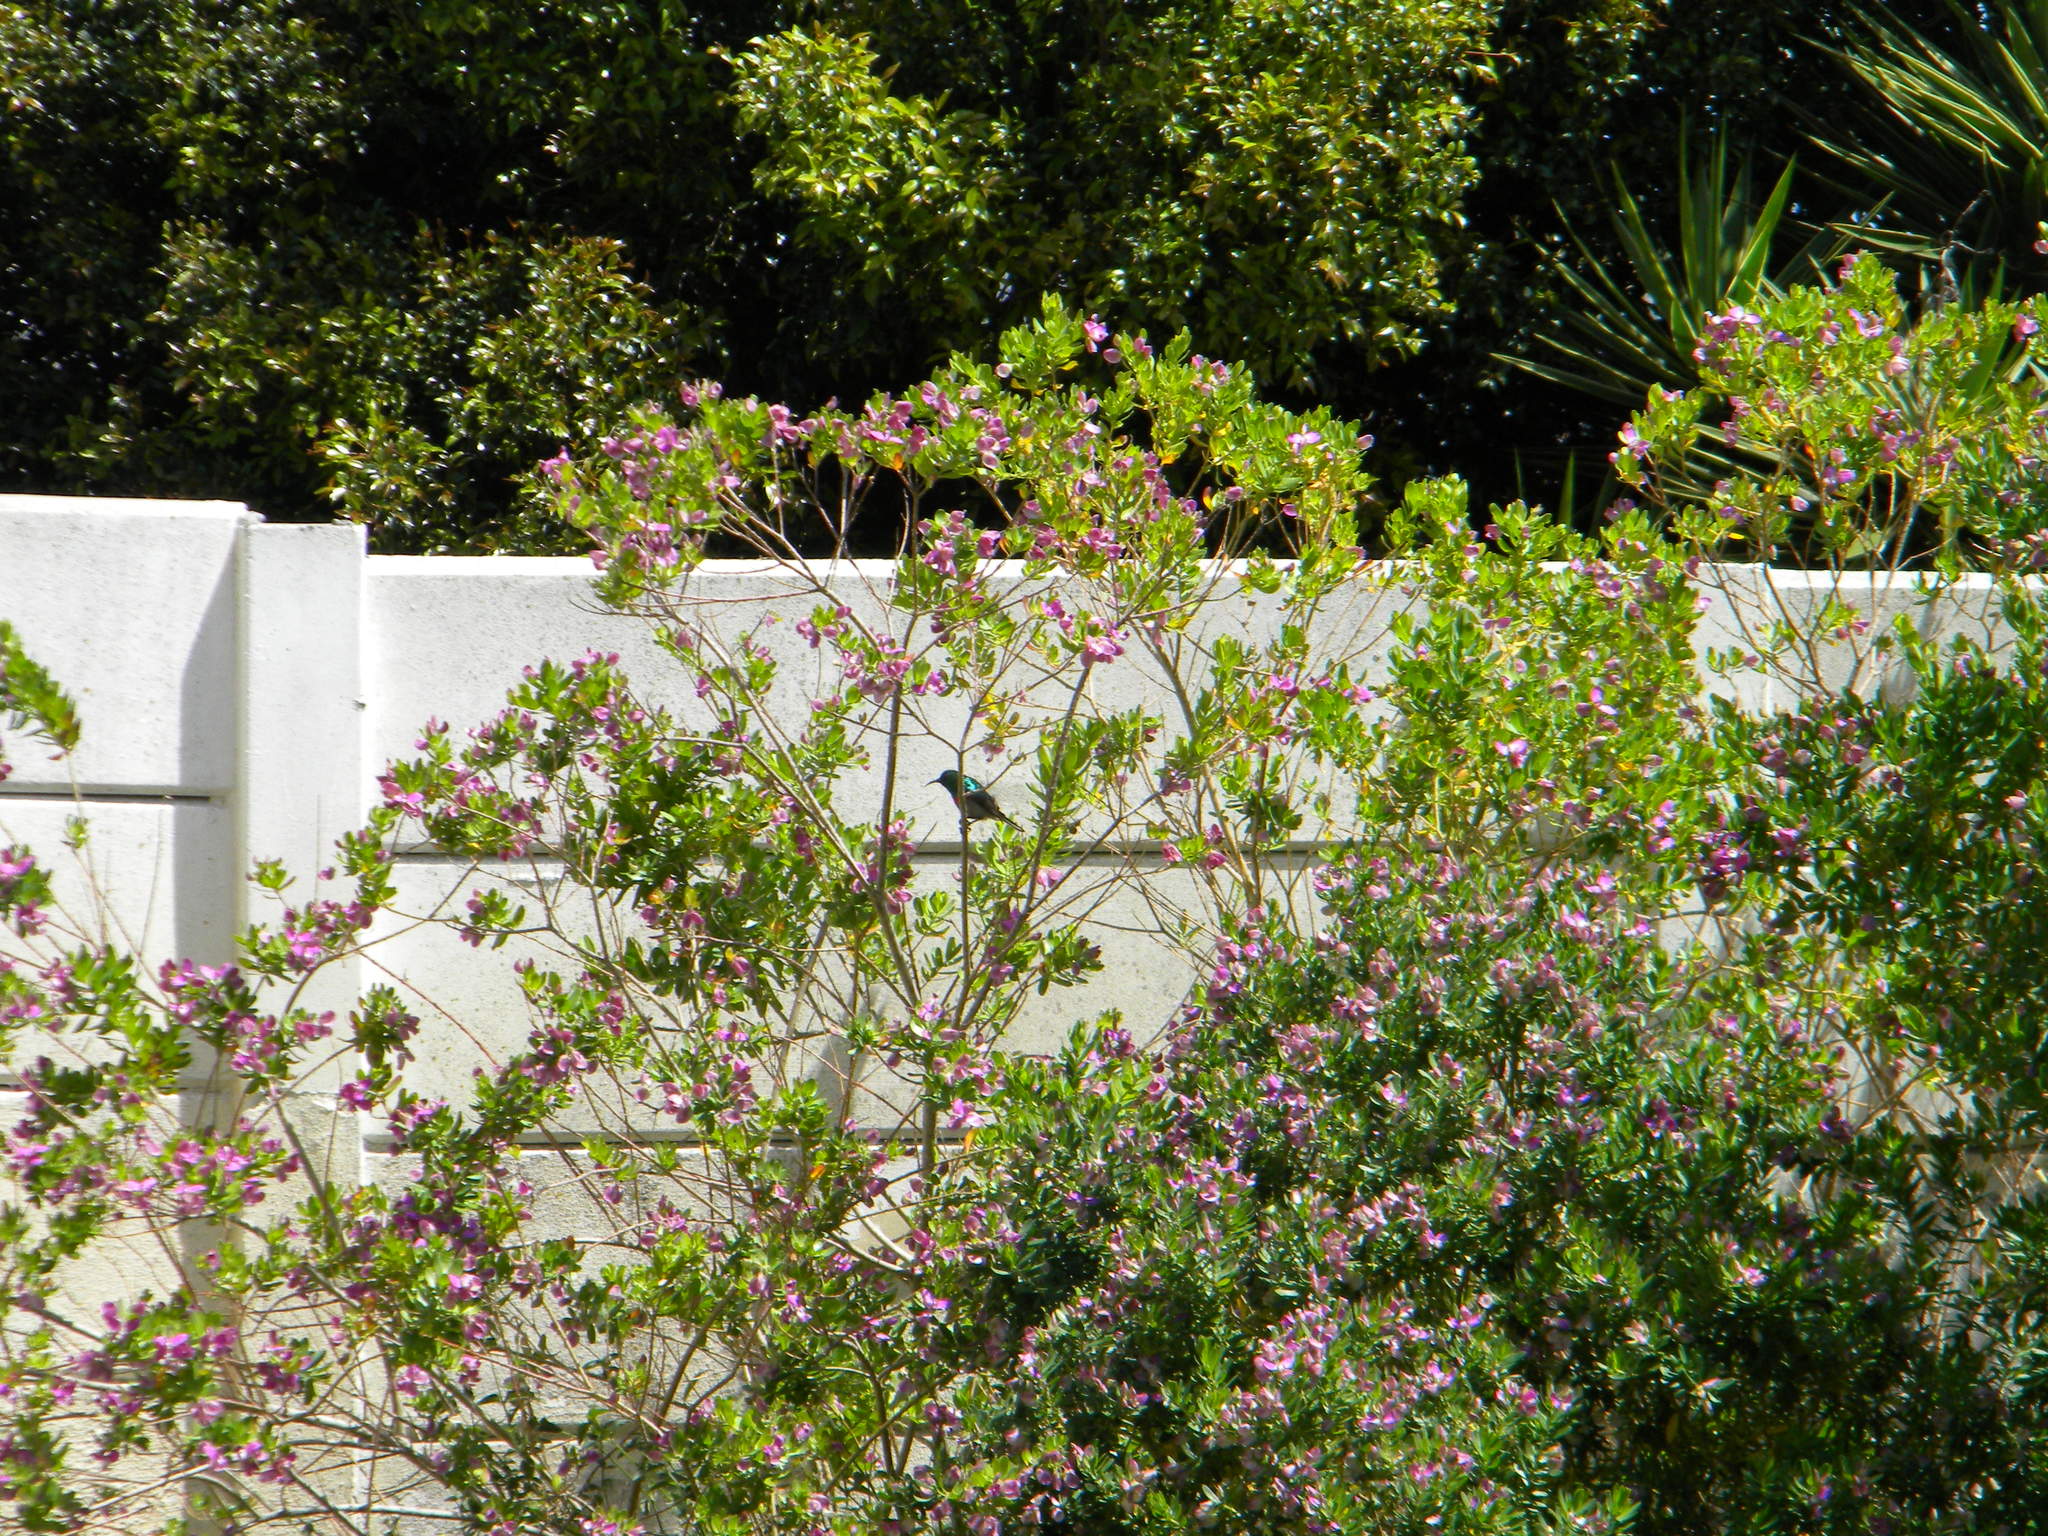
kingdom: Animalia
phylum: Chordata
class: Aves
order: Passeriformes
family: Nectariniidae
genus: Cinnyris
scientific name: Cinnyris chalybeus
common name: Southern double-collared sunbird
